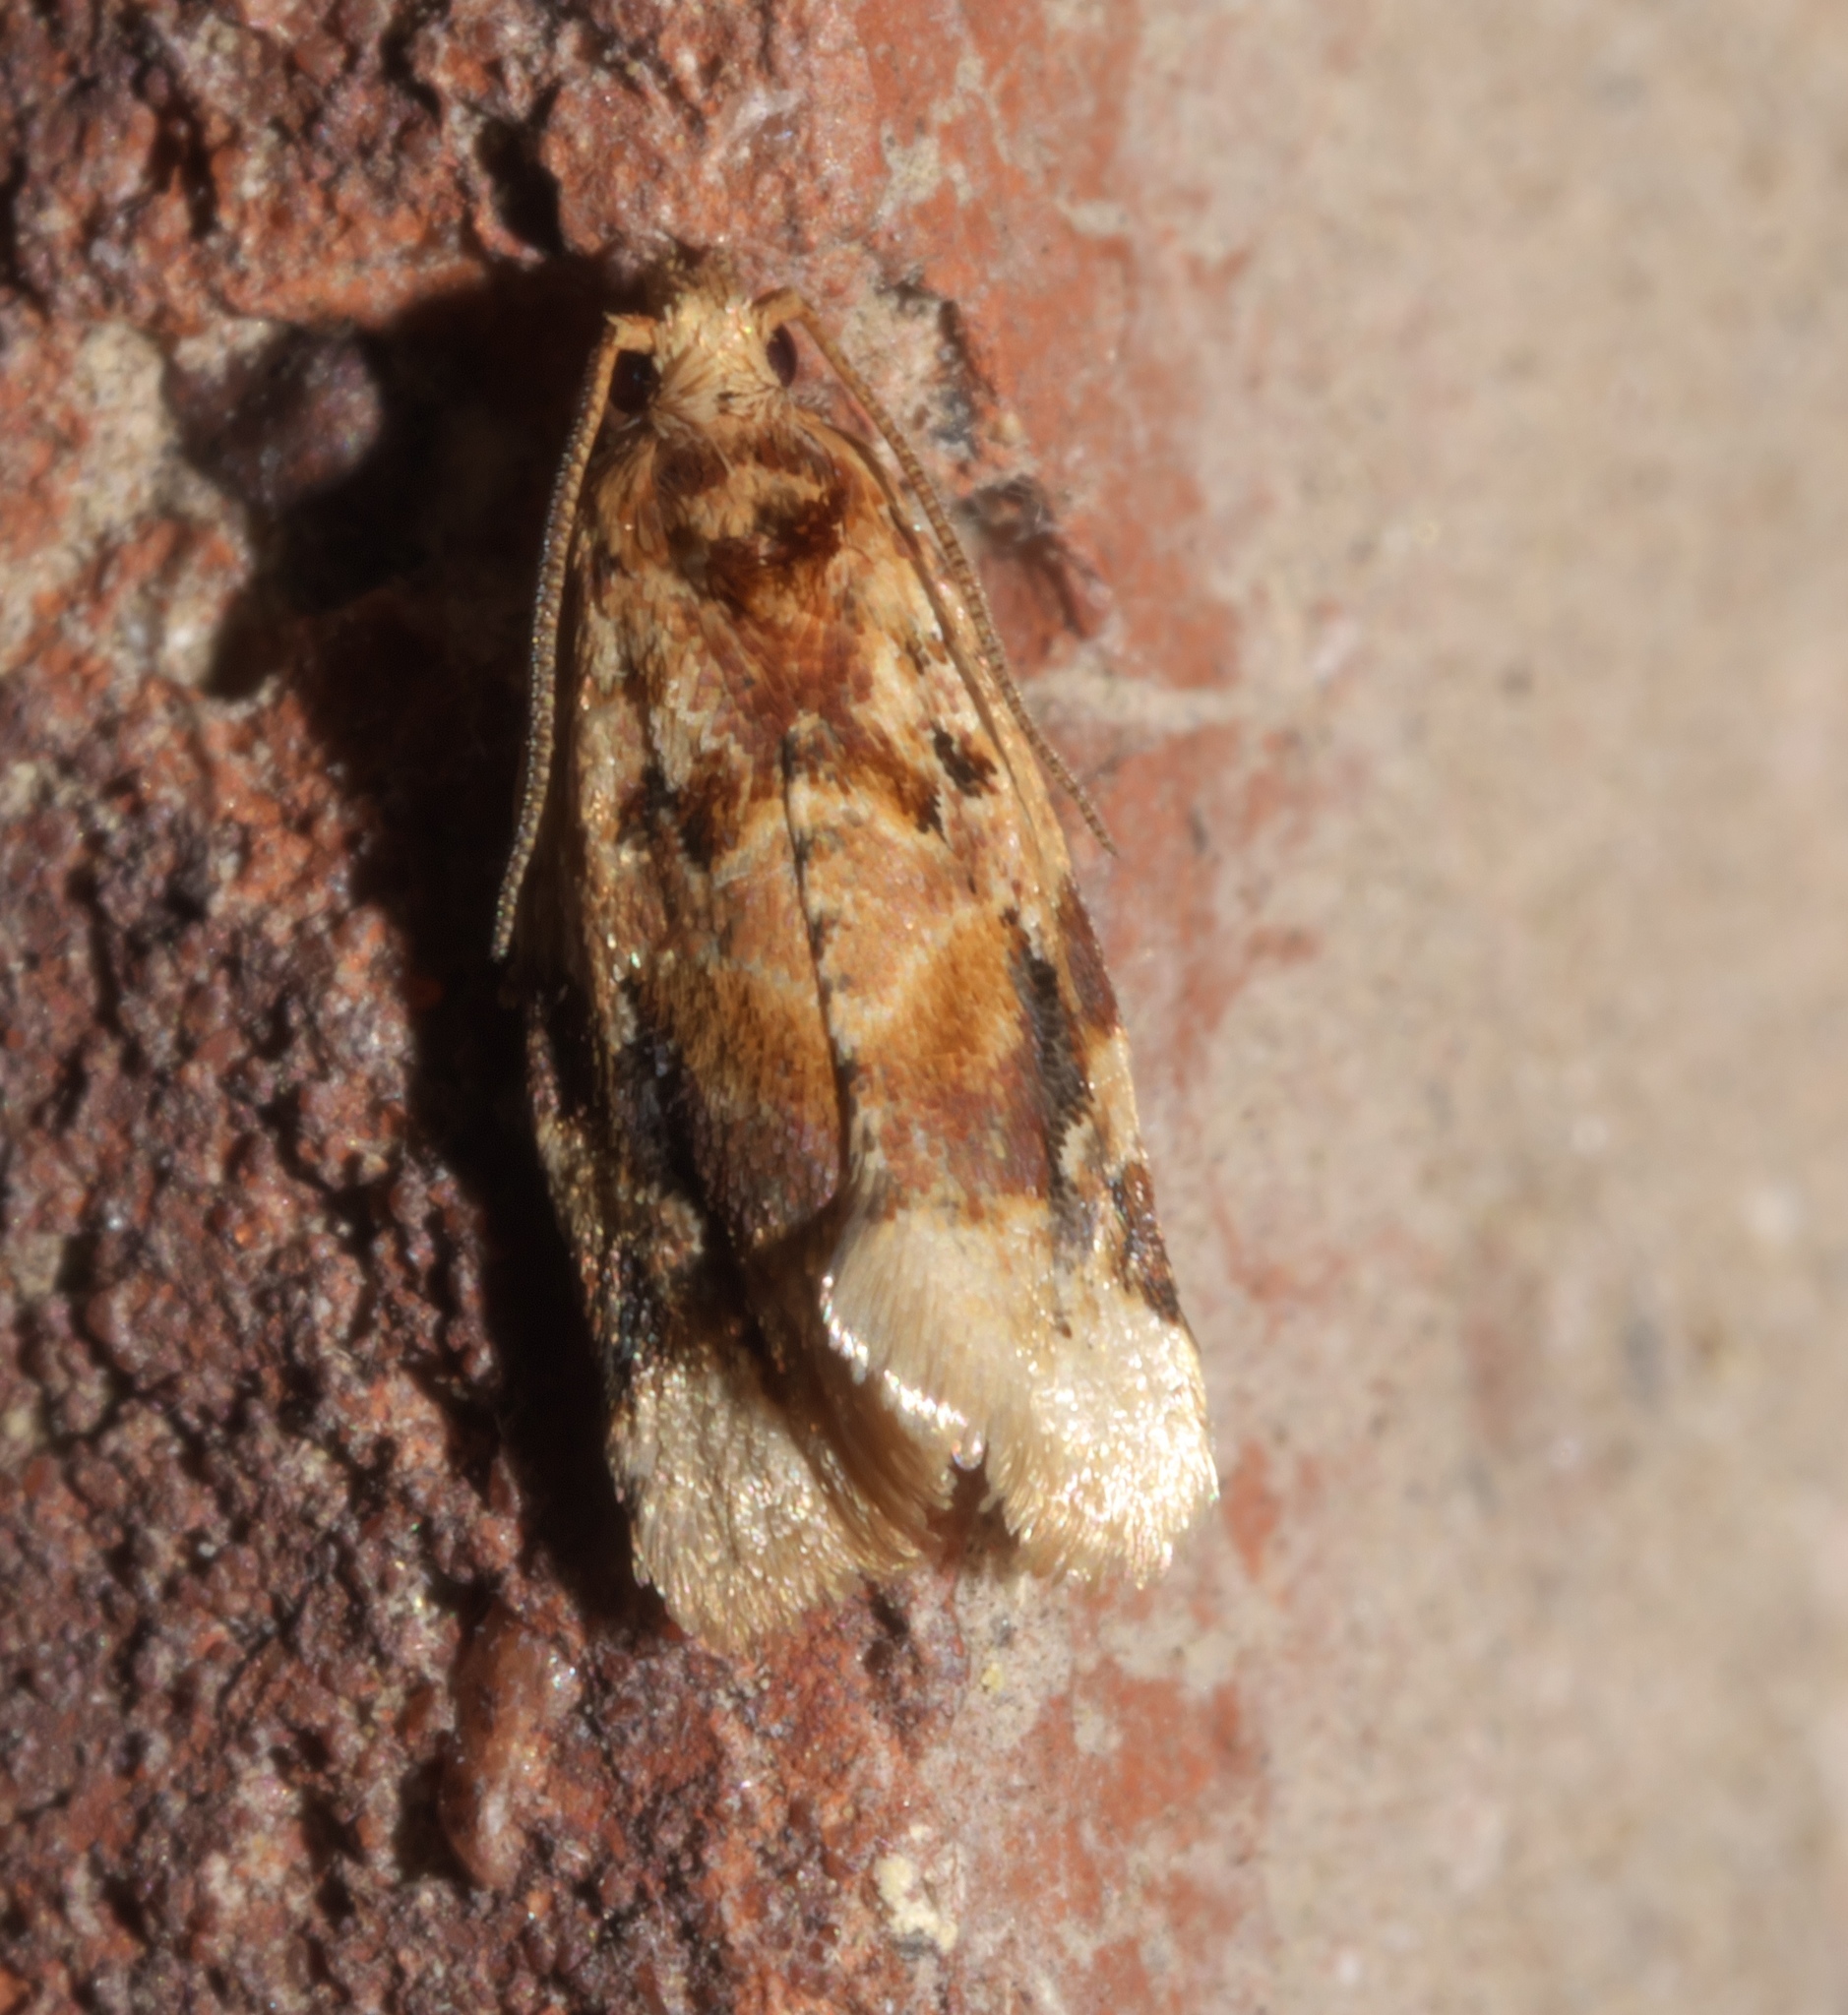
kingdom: Animalia
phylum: Arthropoda
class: Insecta
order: Lepidoptera
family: Tortricidae
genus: Argyrotaenia
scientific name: Argyrotaenia velutinana
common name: Red-banded leafroller moth
